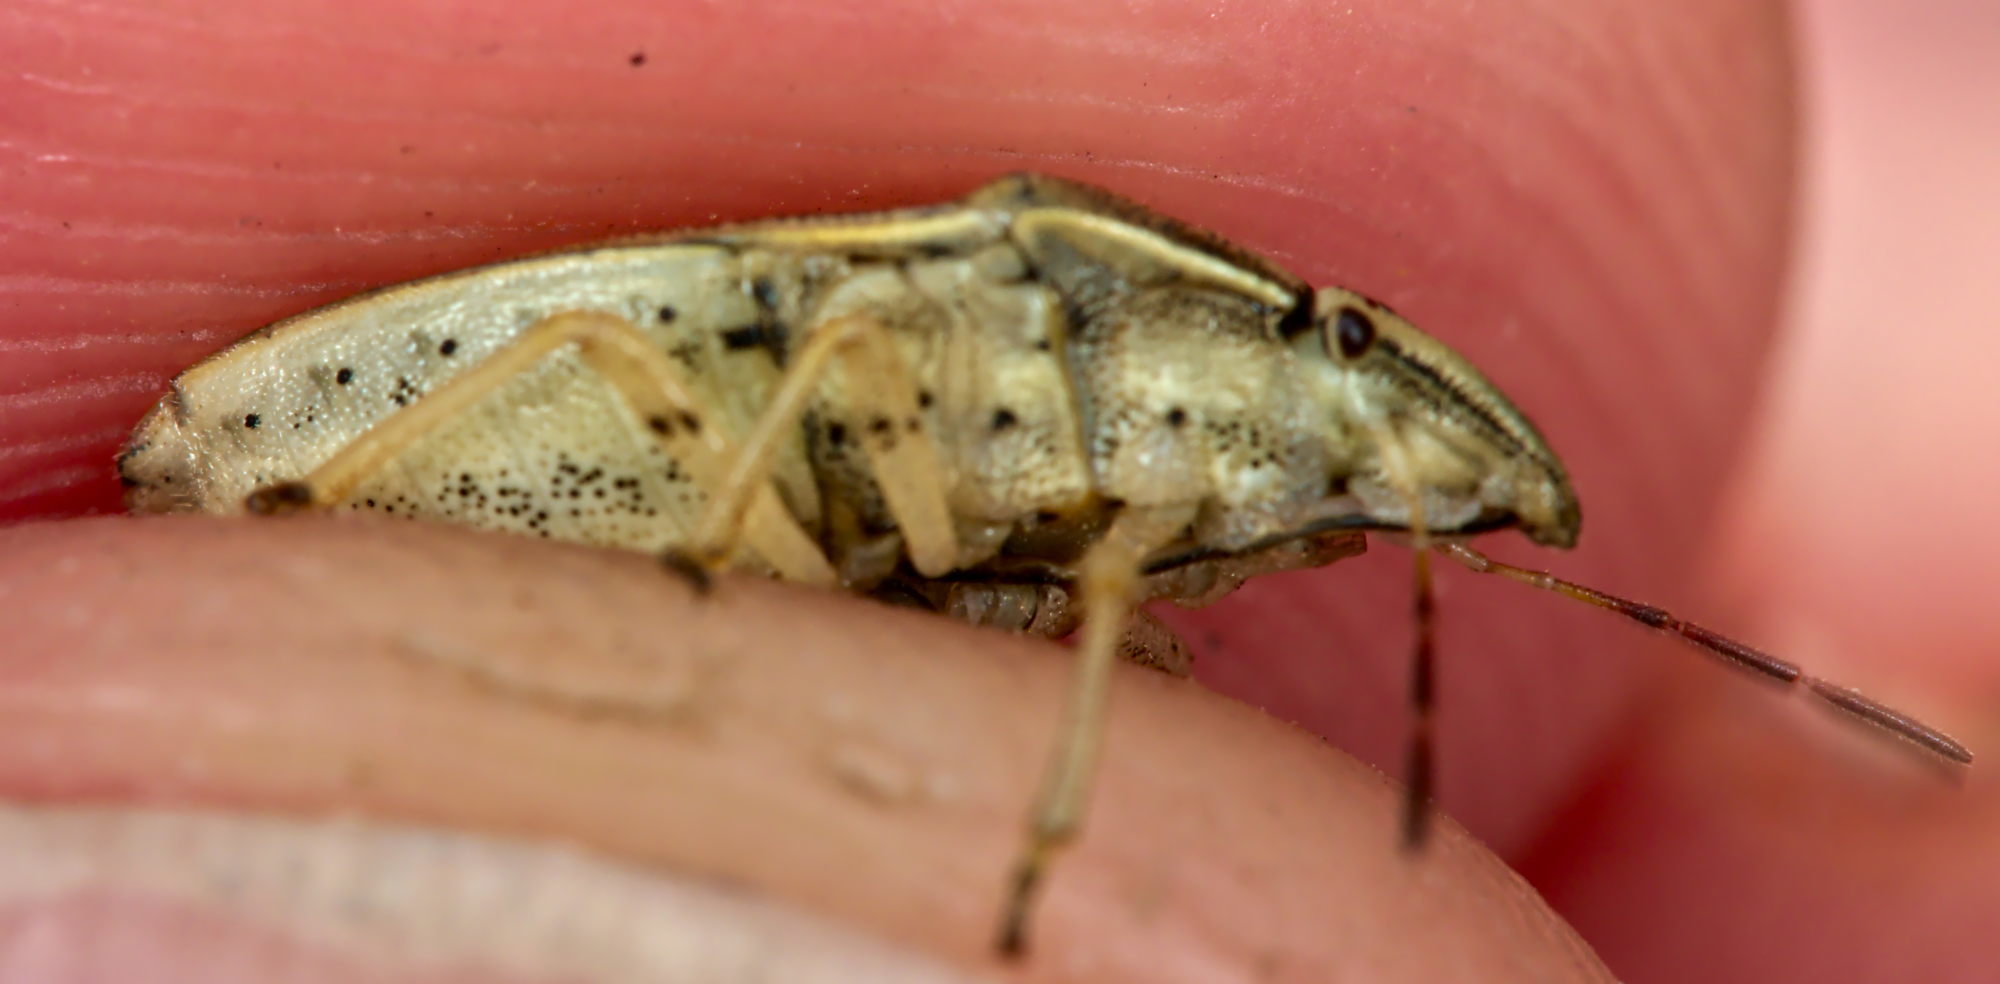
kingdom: Animalia
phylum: Arthropoda
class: Insecta
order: Hemiptera
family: Pentatomidae
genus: Aelia
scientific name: Aelia acuminata
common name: Bishop's mitre
